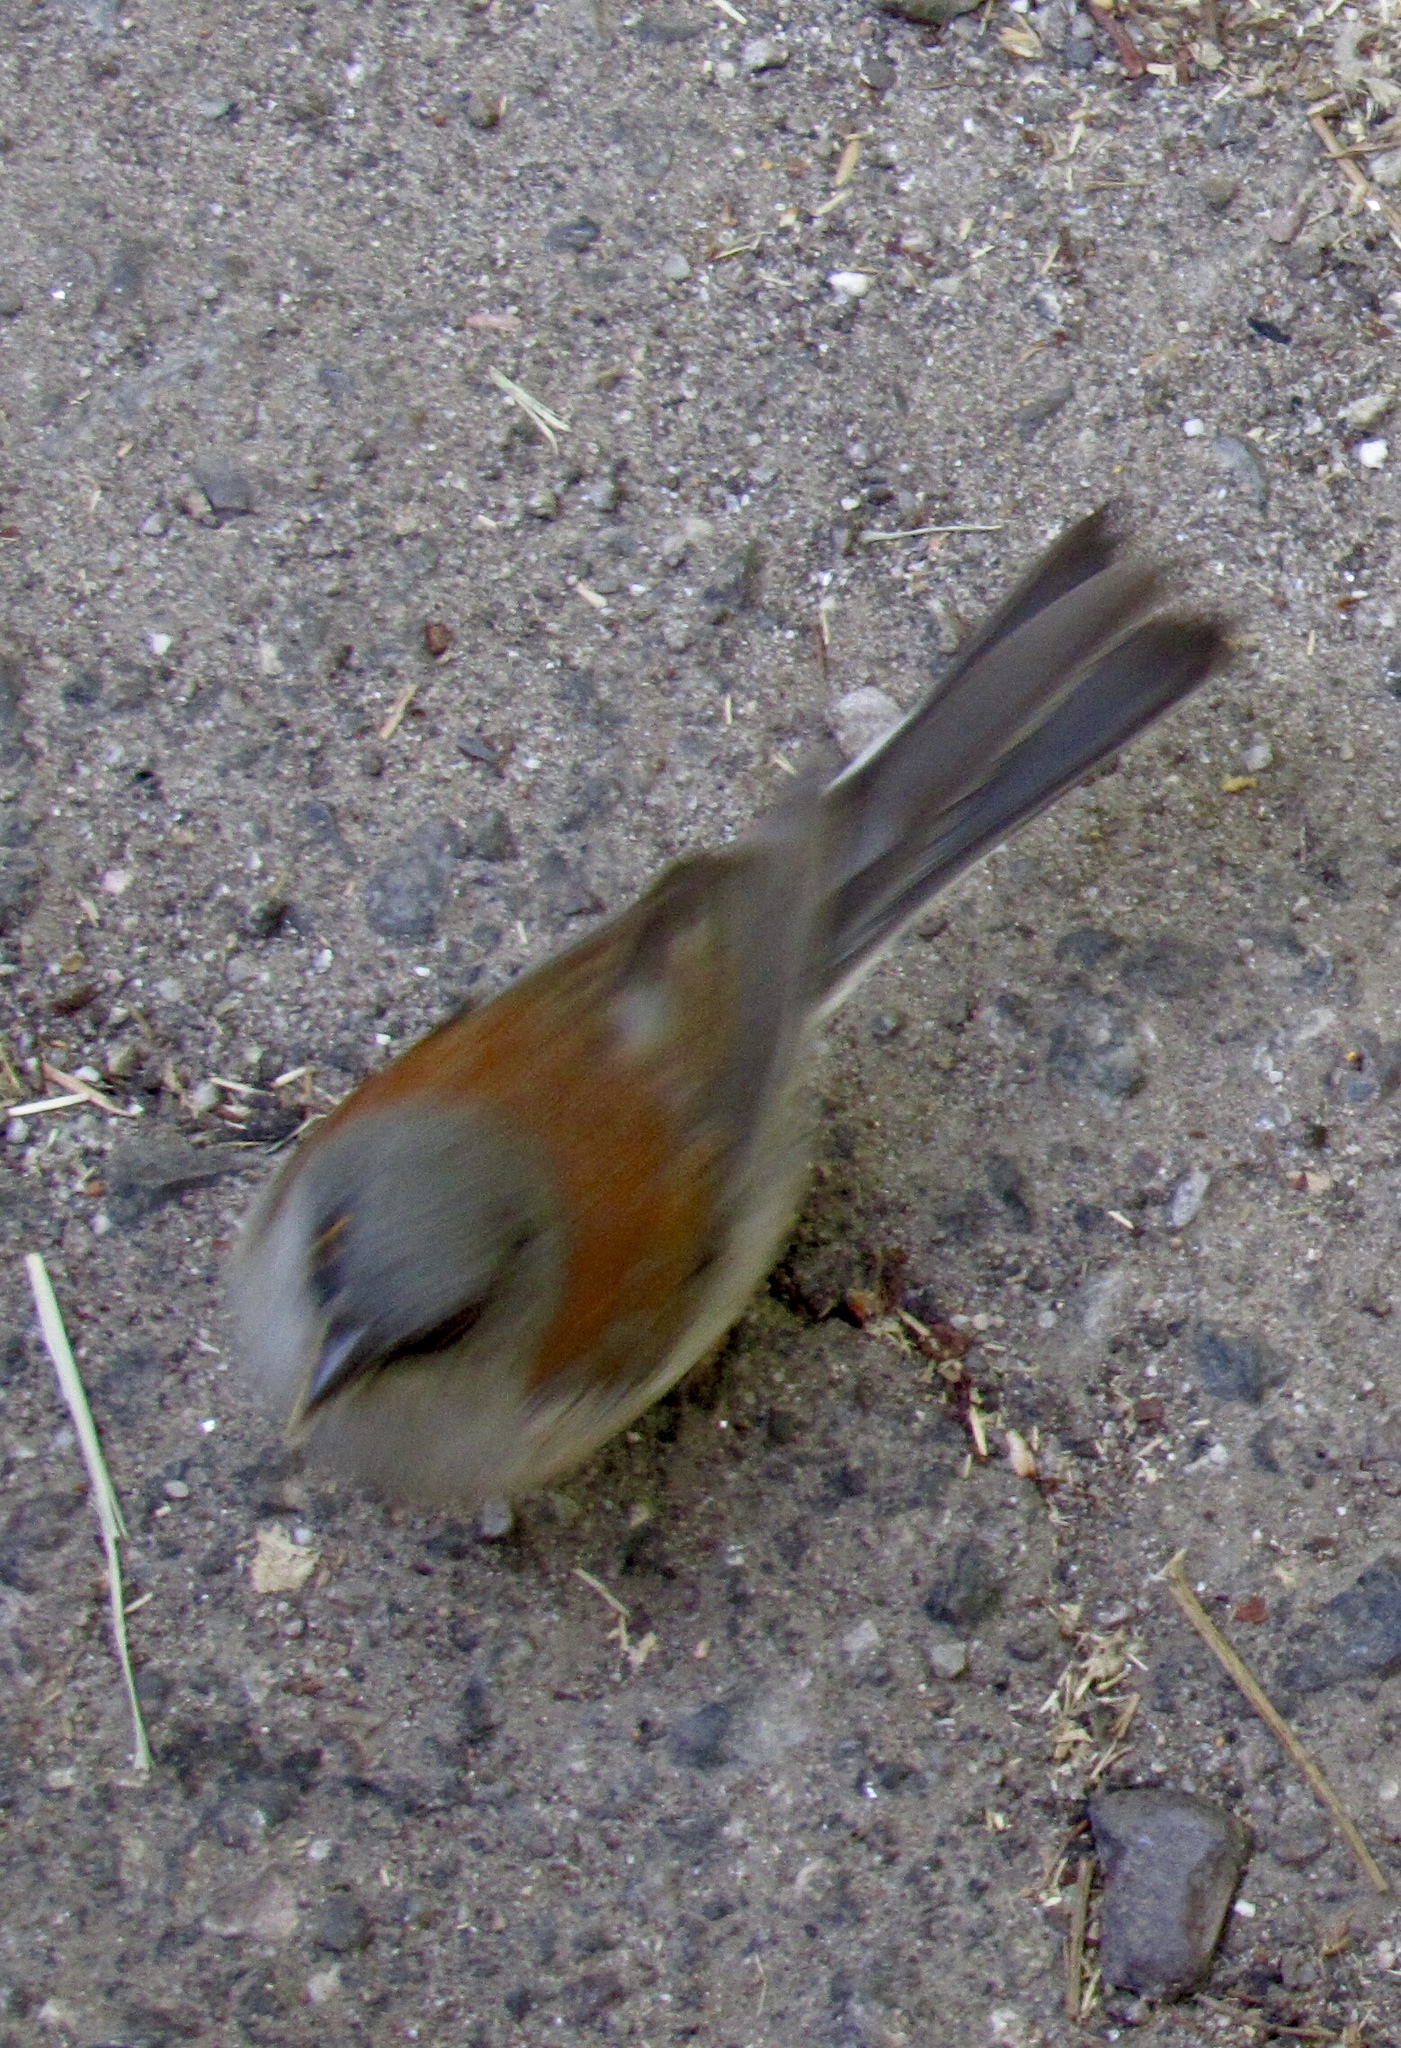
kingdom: Animalia
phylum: Chordata
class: Aves
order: Passeriformes
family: Passerellidae
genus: Junco
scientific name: Junco phaeonotus
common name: Yellow-eyed junco
